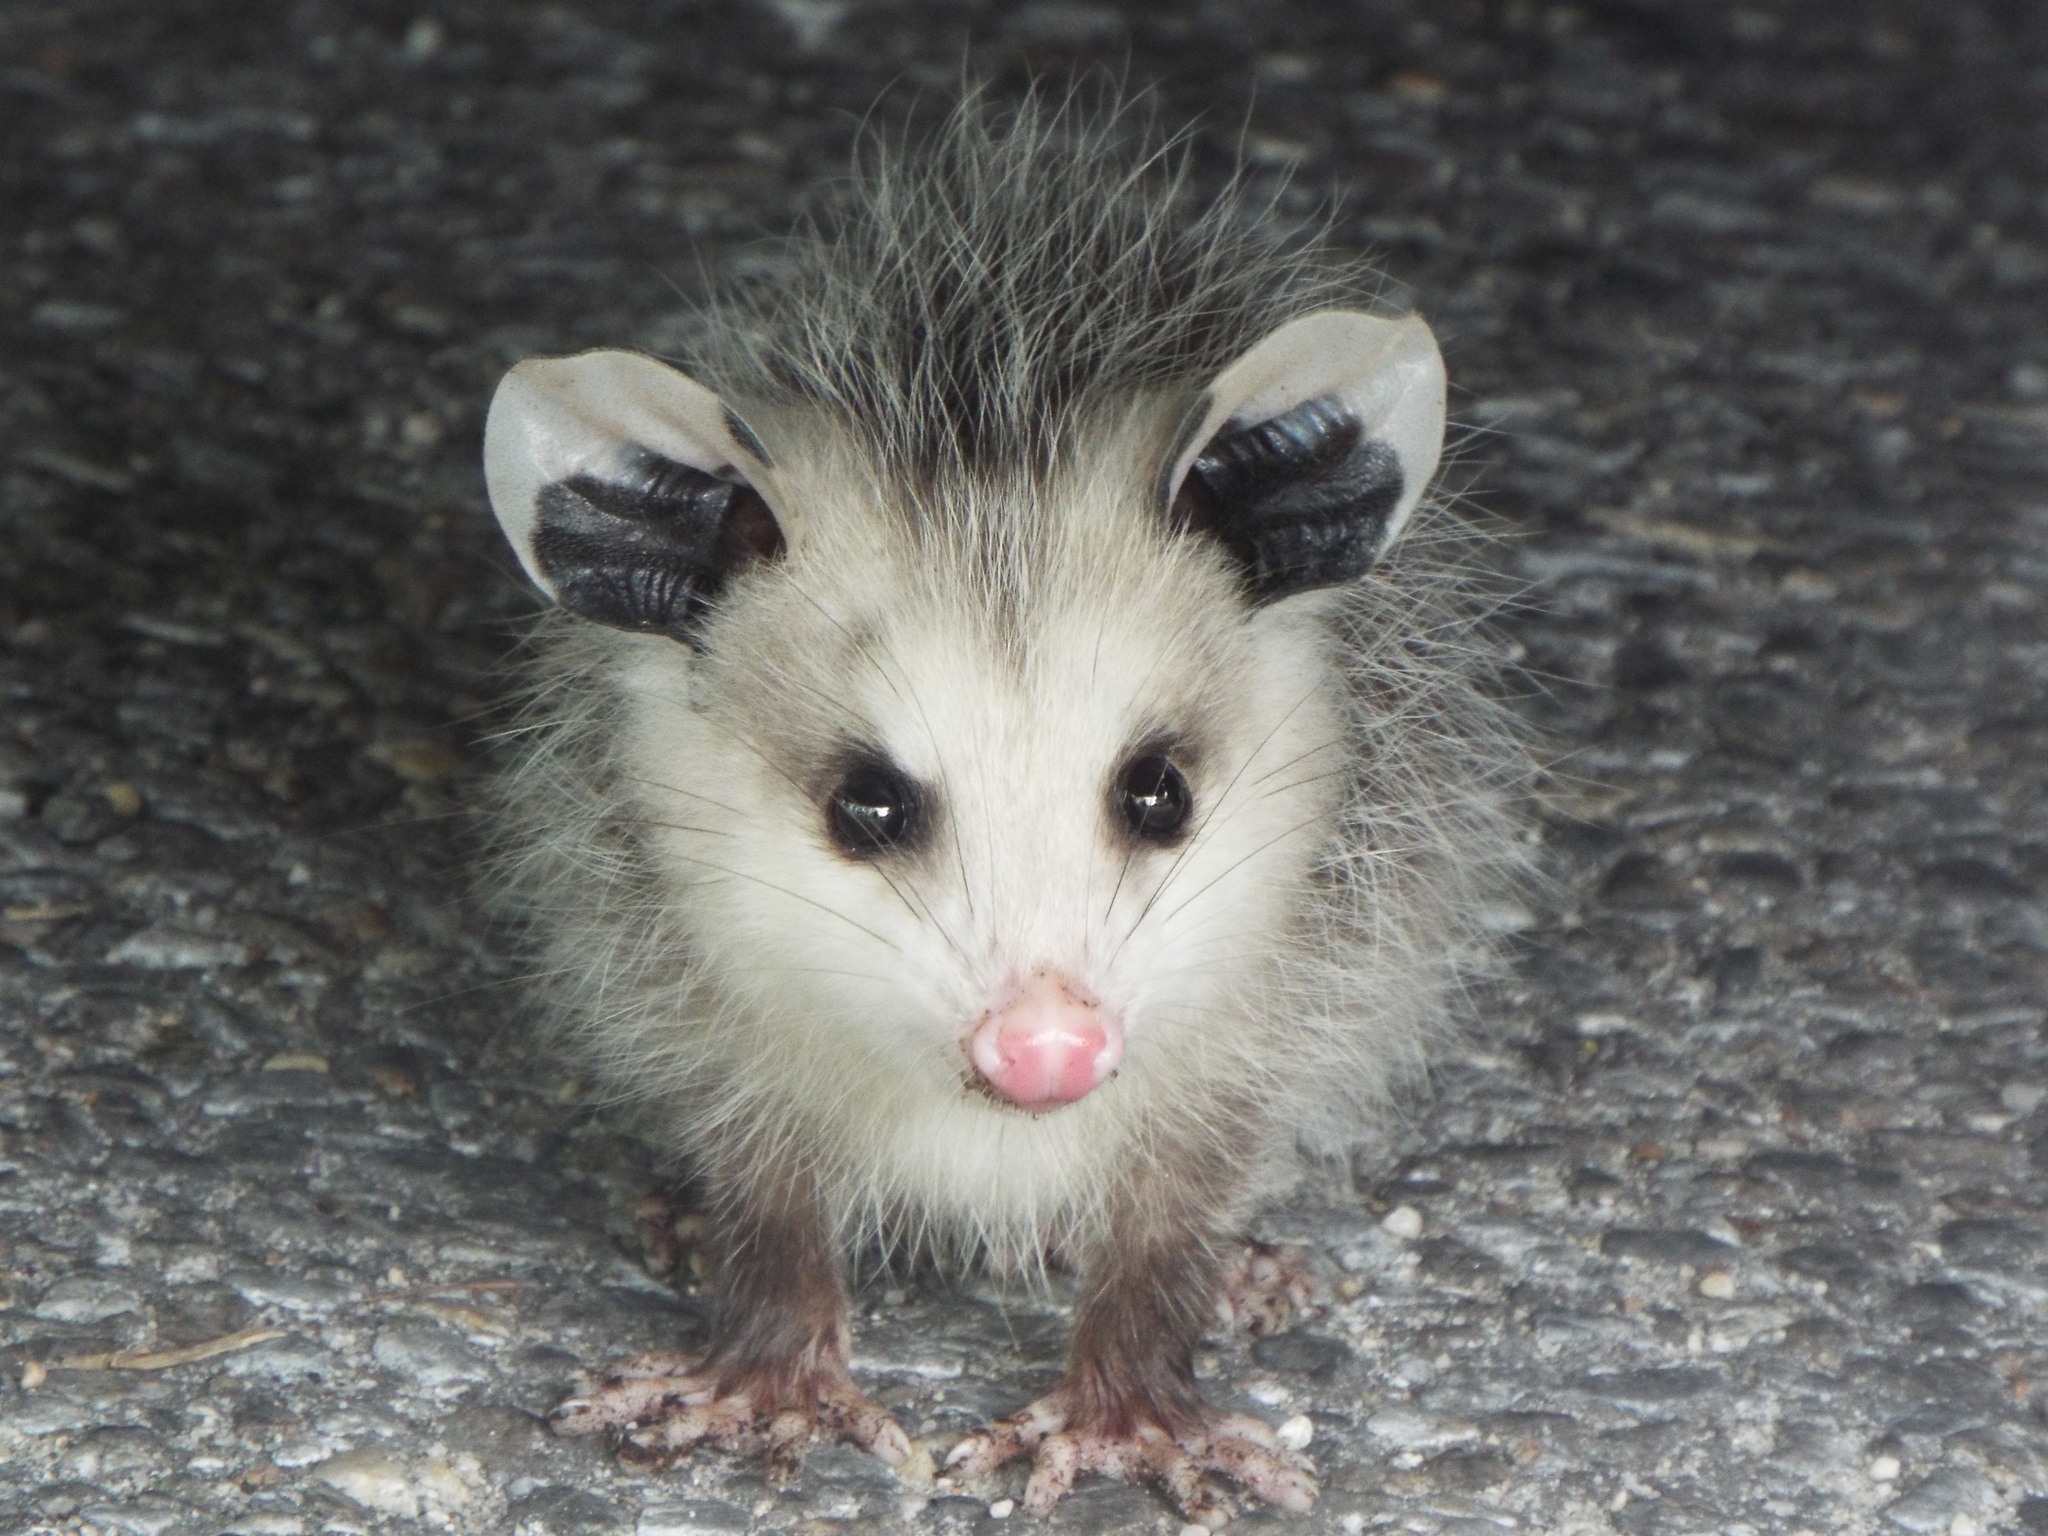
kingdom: Animalia
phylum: Chordata
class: Mammalia
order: Didelphimorphia
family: Didelphidae
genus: Didelphis
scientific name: Didelphis virginiana
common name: Virginia opossum
